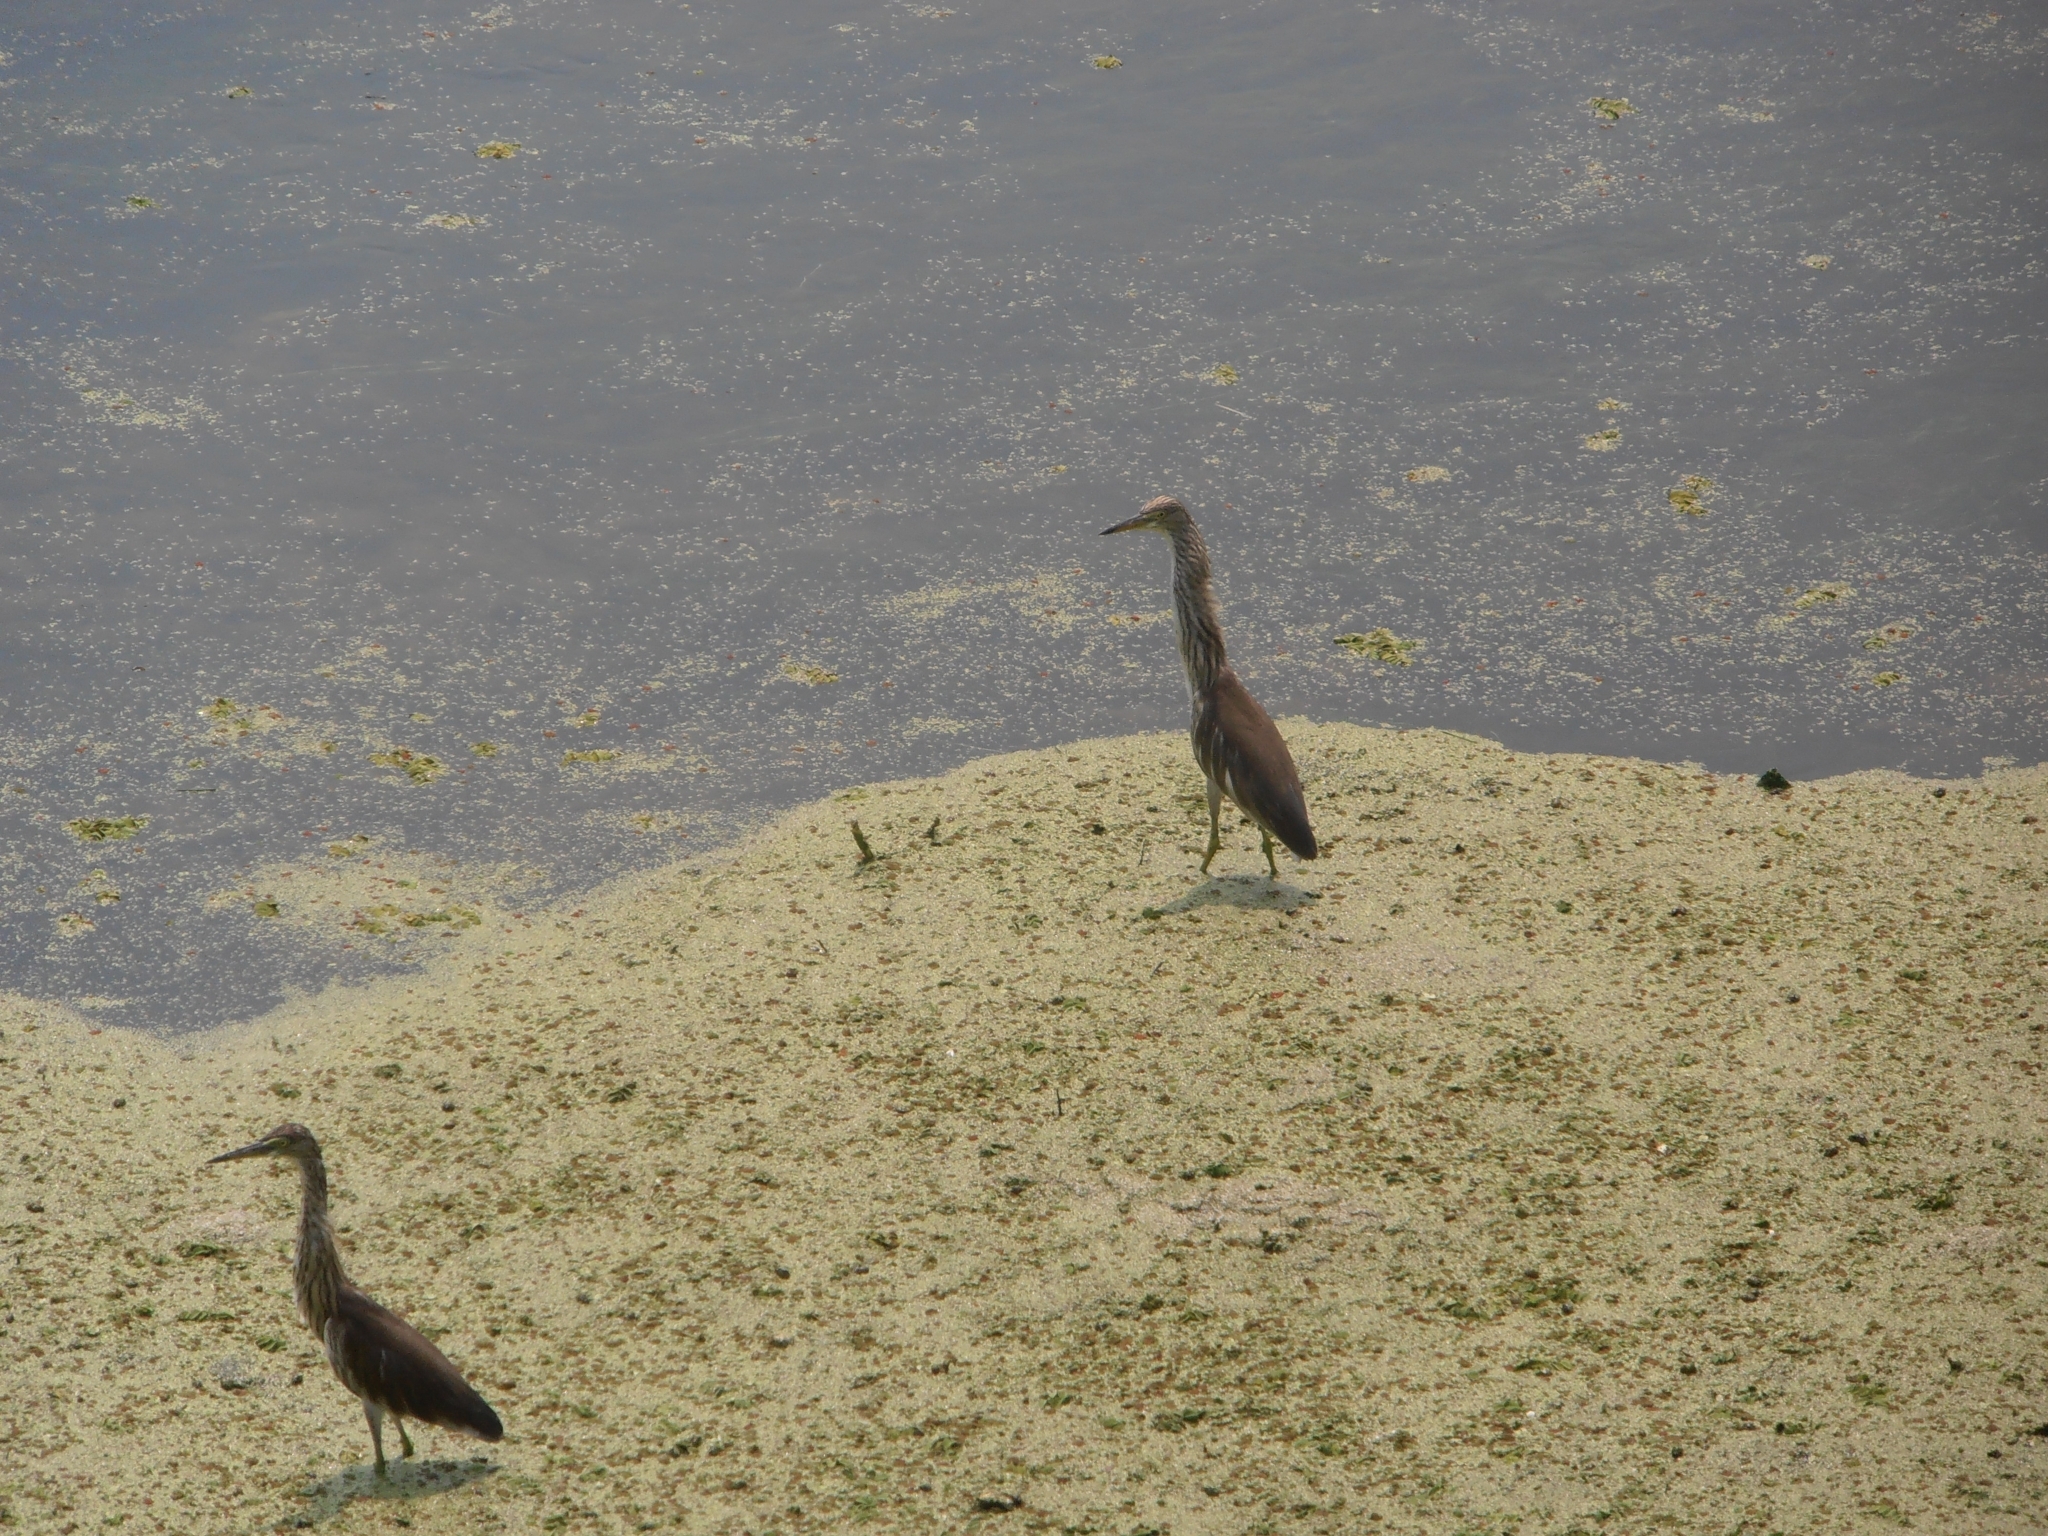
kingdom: Animalia
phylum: Chordata
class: Aves
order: Pelecaniformes
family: Ardeidae
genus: Ardeola
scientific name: Ardeola bacchus
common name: Chinese pond heron
